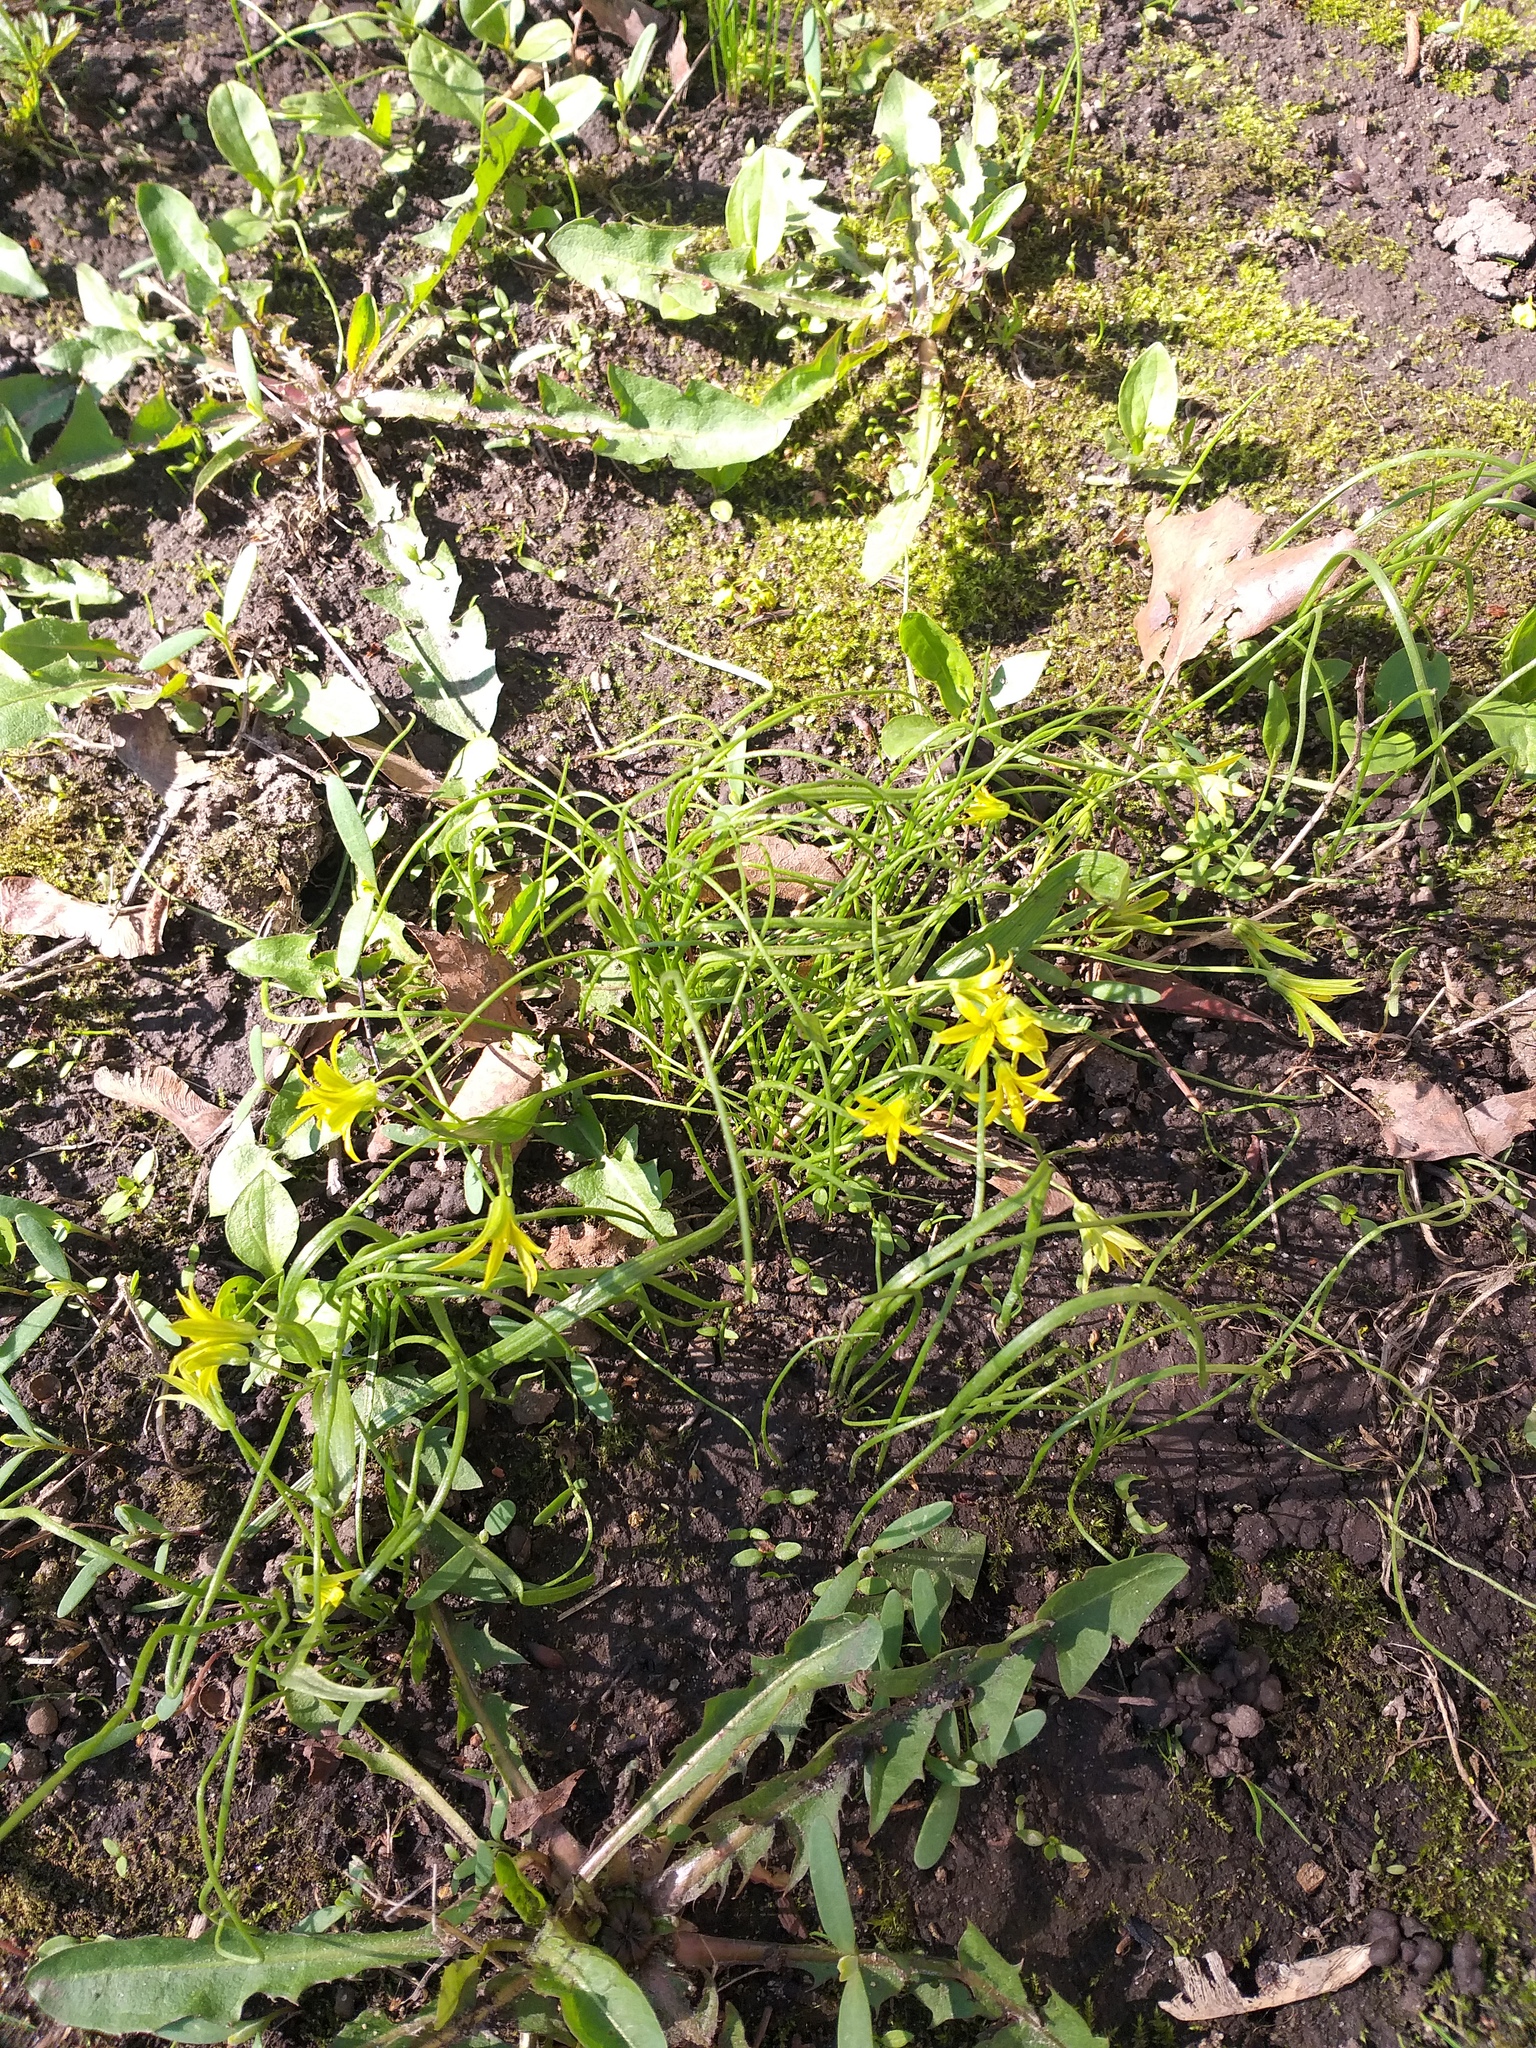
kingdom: Plantae
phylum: Tracheophyta
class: Liliopsida
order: Liliales
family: Liliaceae
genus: Gagea
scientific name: Gagea minima
